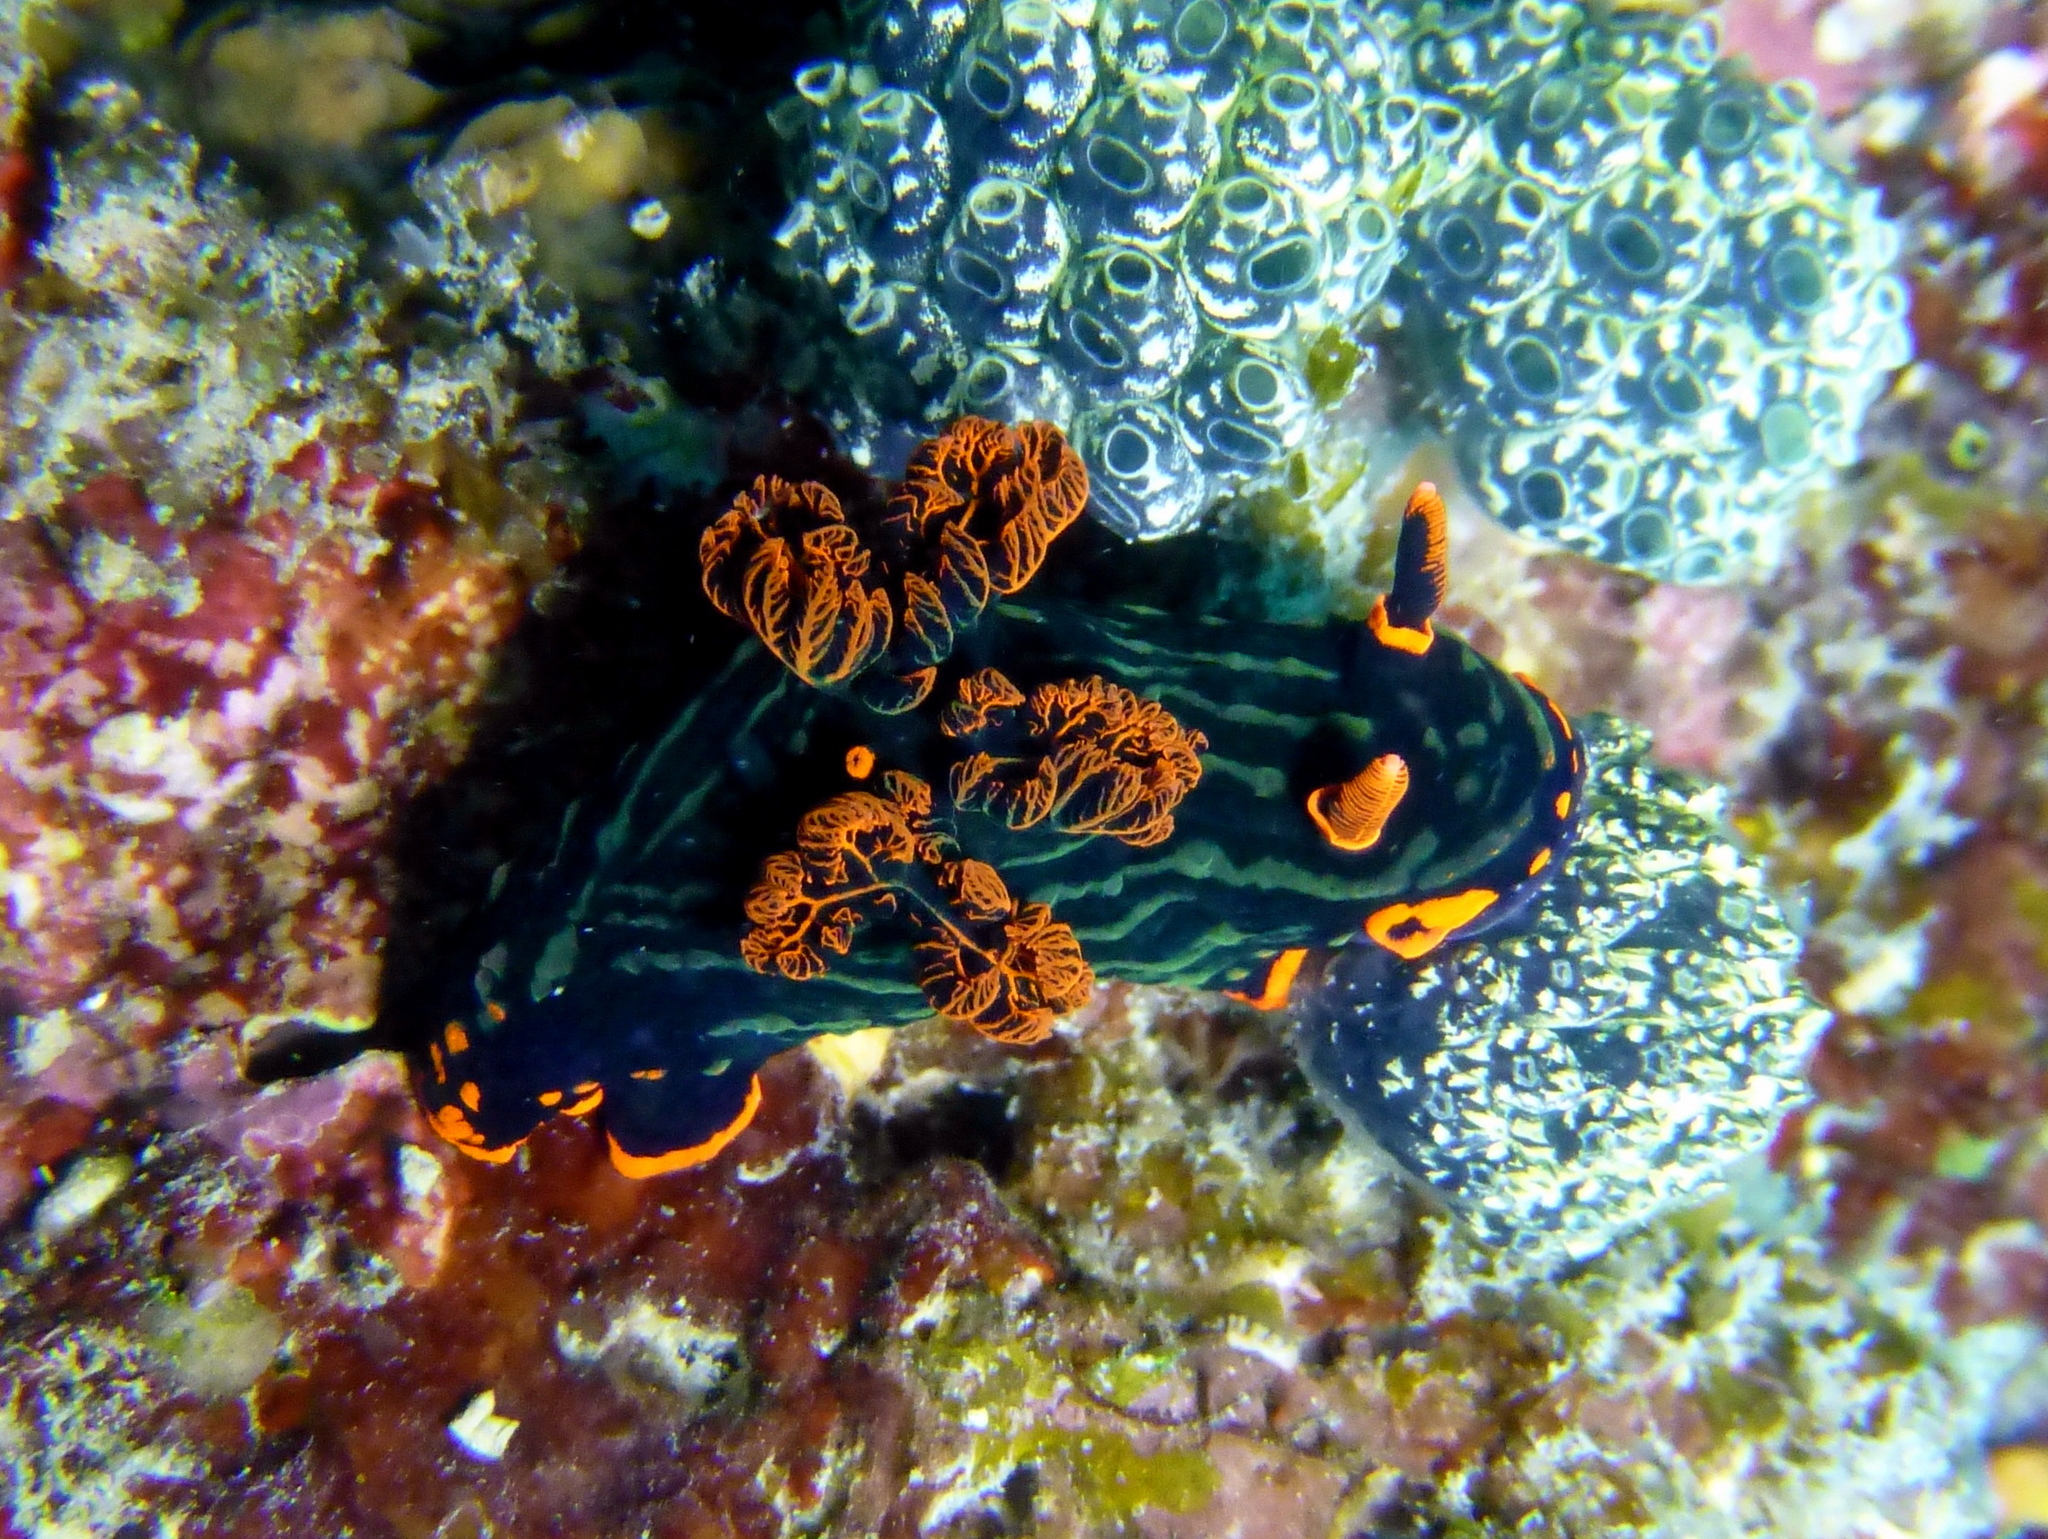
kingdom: Animalia
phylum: Mollusca
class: Gastropoda
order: Nudibranchia
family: Polyceridae
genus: Nembrotha
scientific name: Nembrotha kubaryana
